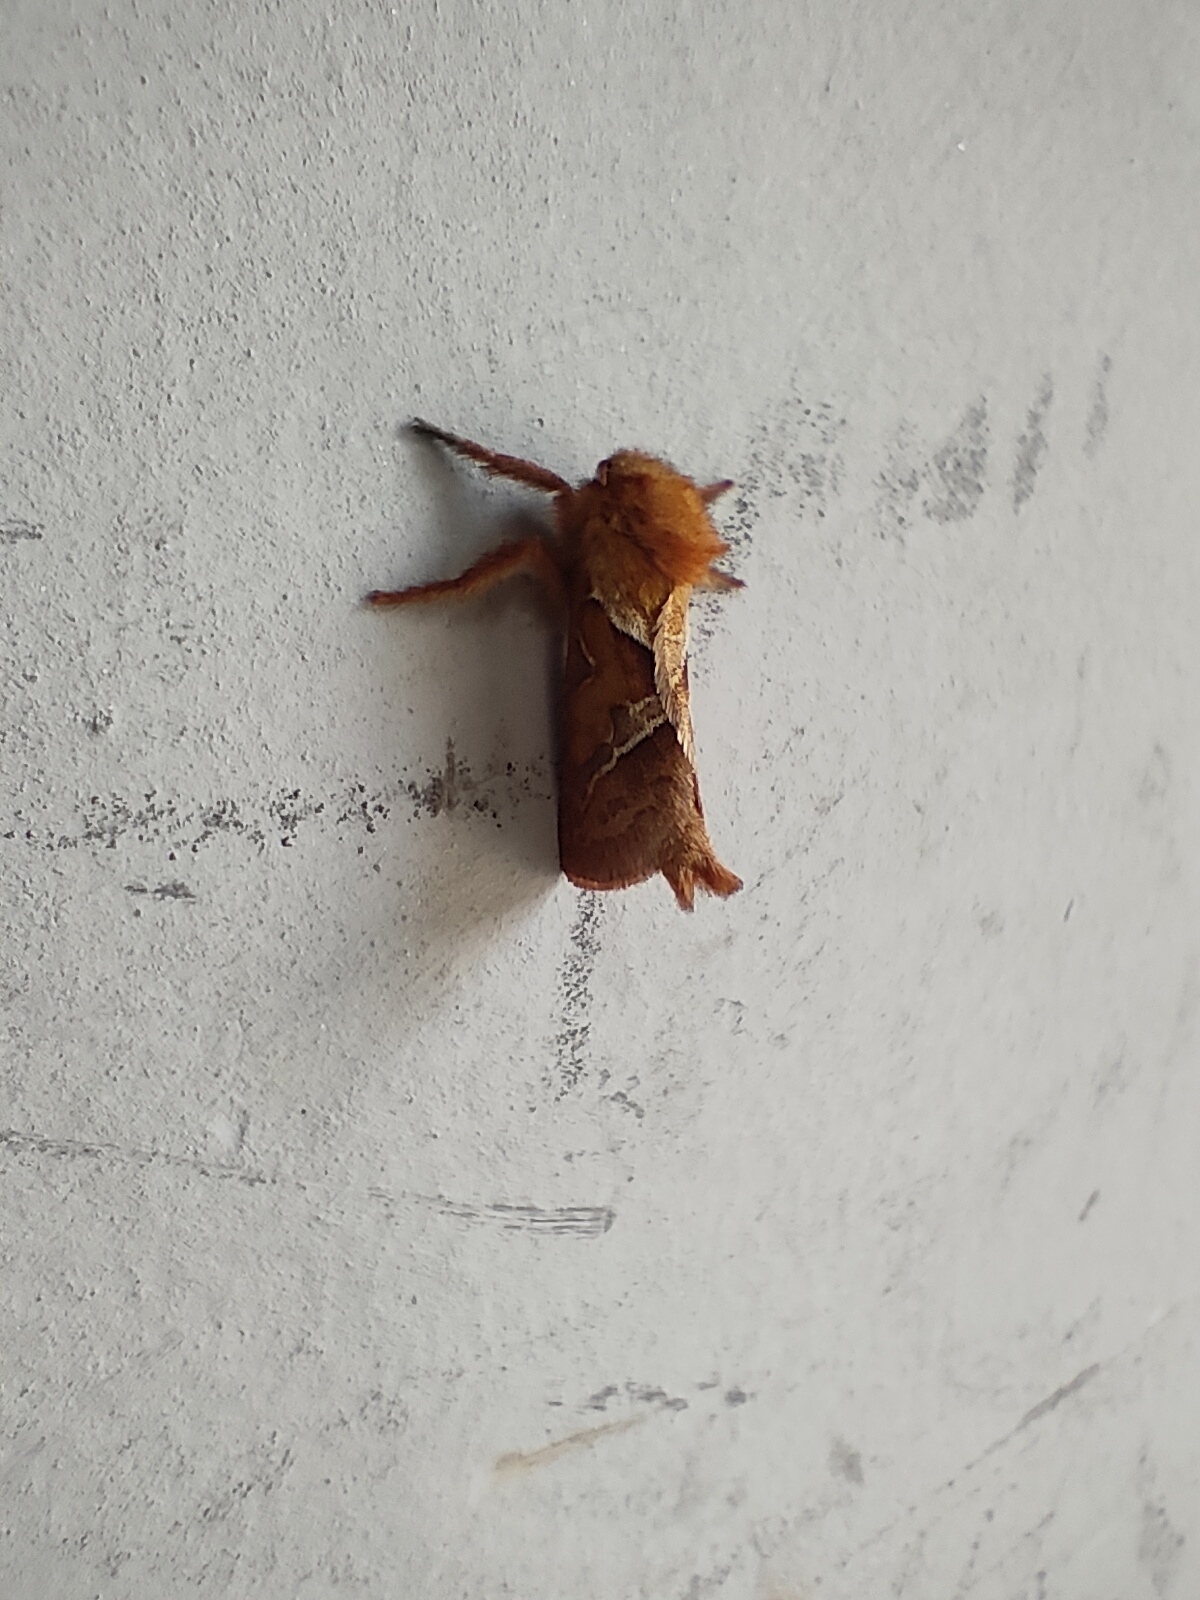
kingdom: Animalia
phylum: Arthropoda
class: Insecta
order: Lepidoptera
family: Hepialidae
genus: Triodia
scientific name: Triodia sylvina
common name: Orange swift
